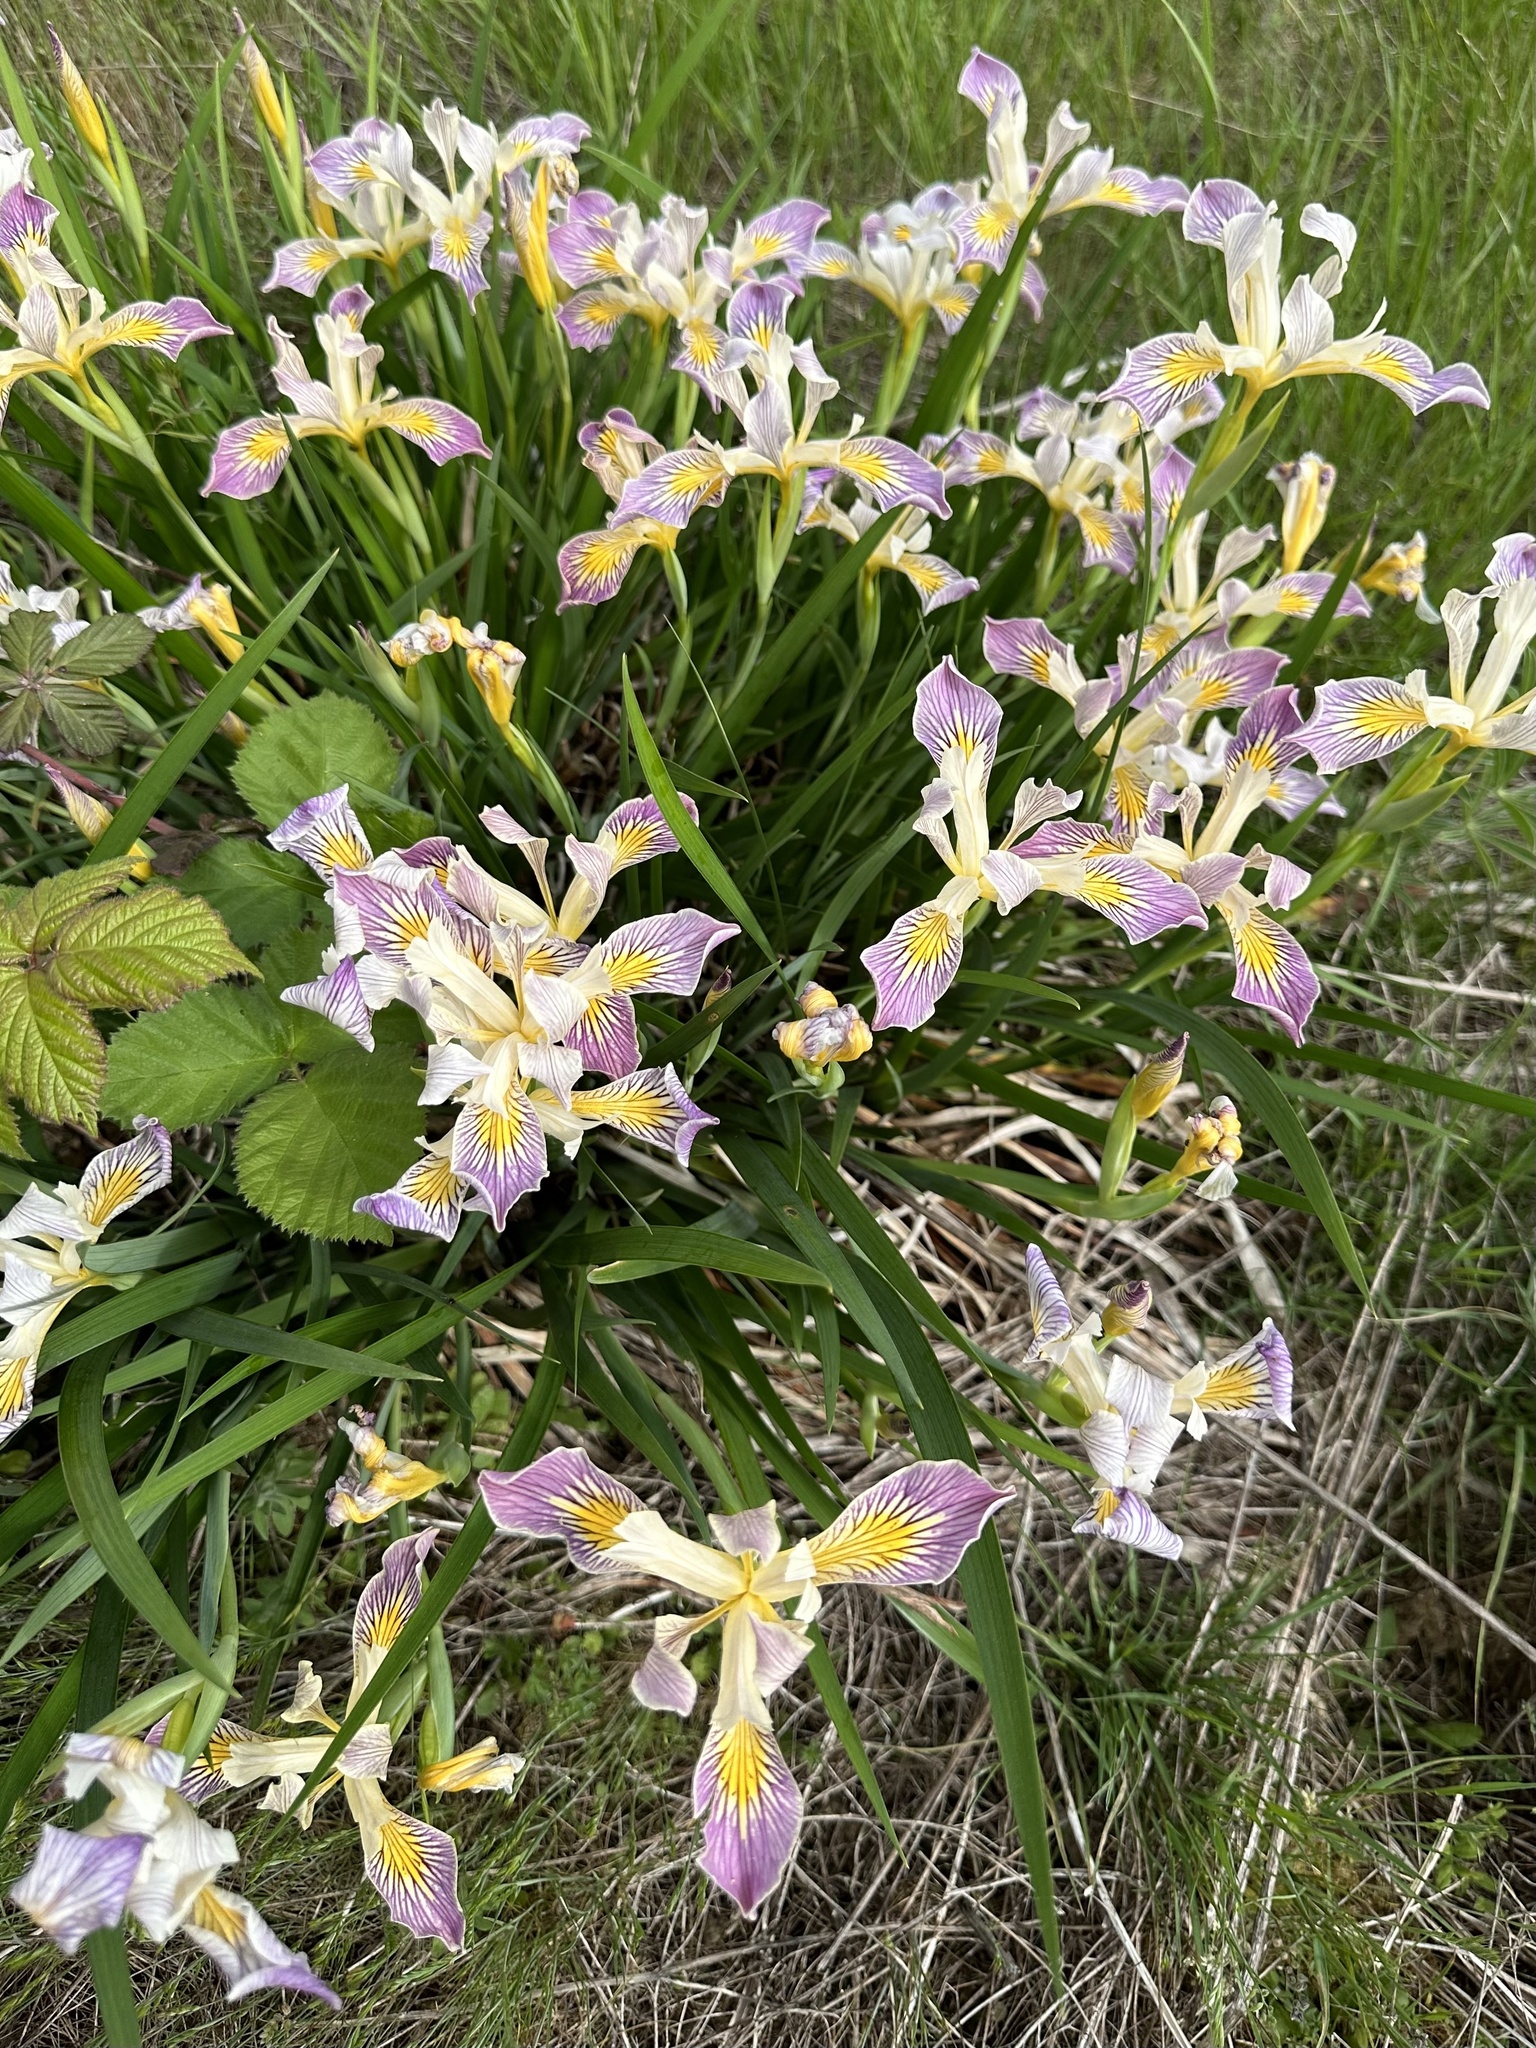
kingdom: Plantae
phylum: Tracheophyta
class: Liliopsida
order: Asparagales
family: Iridaceae
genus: Iris
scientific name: Iris tenax
